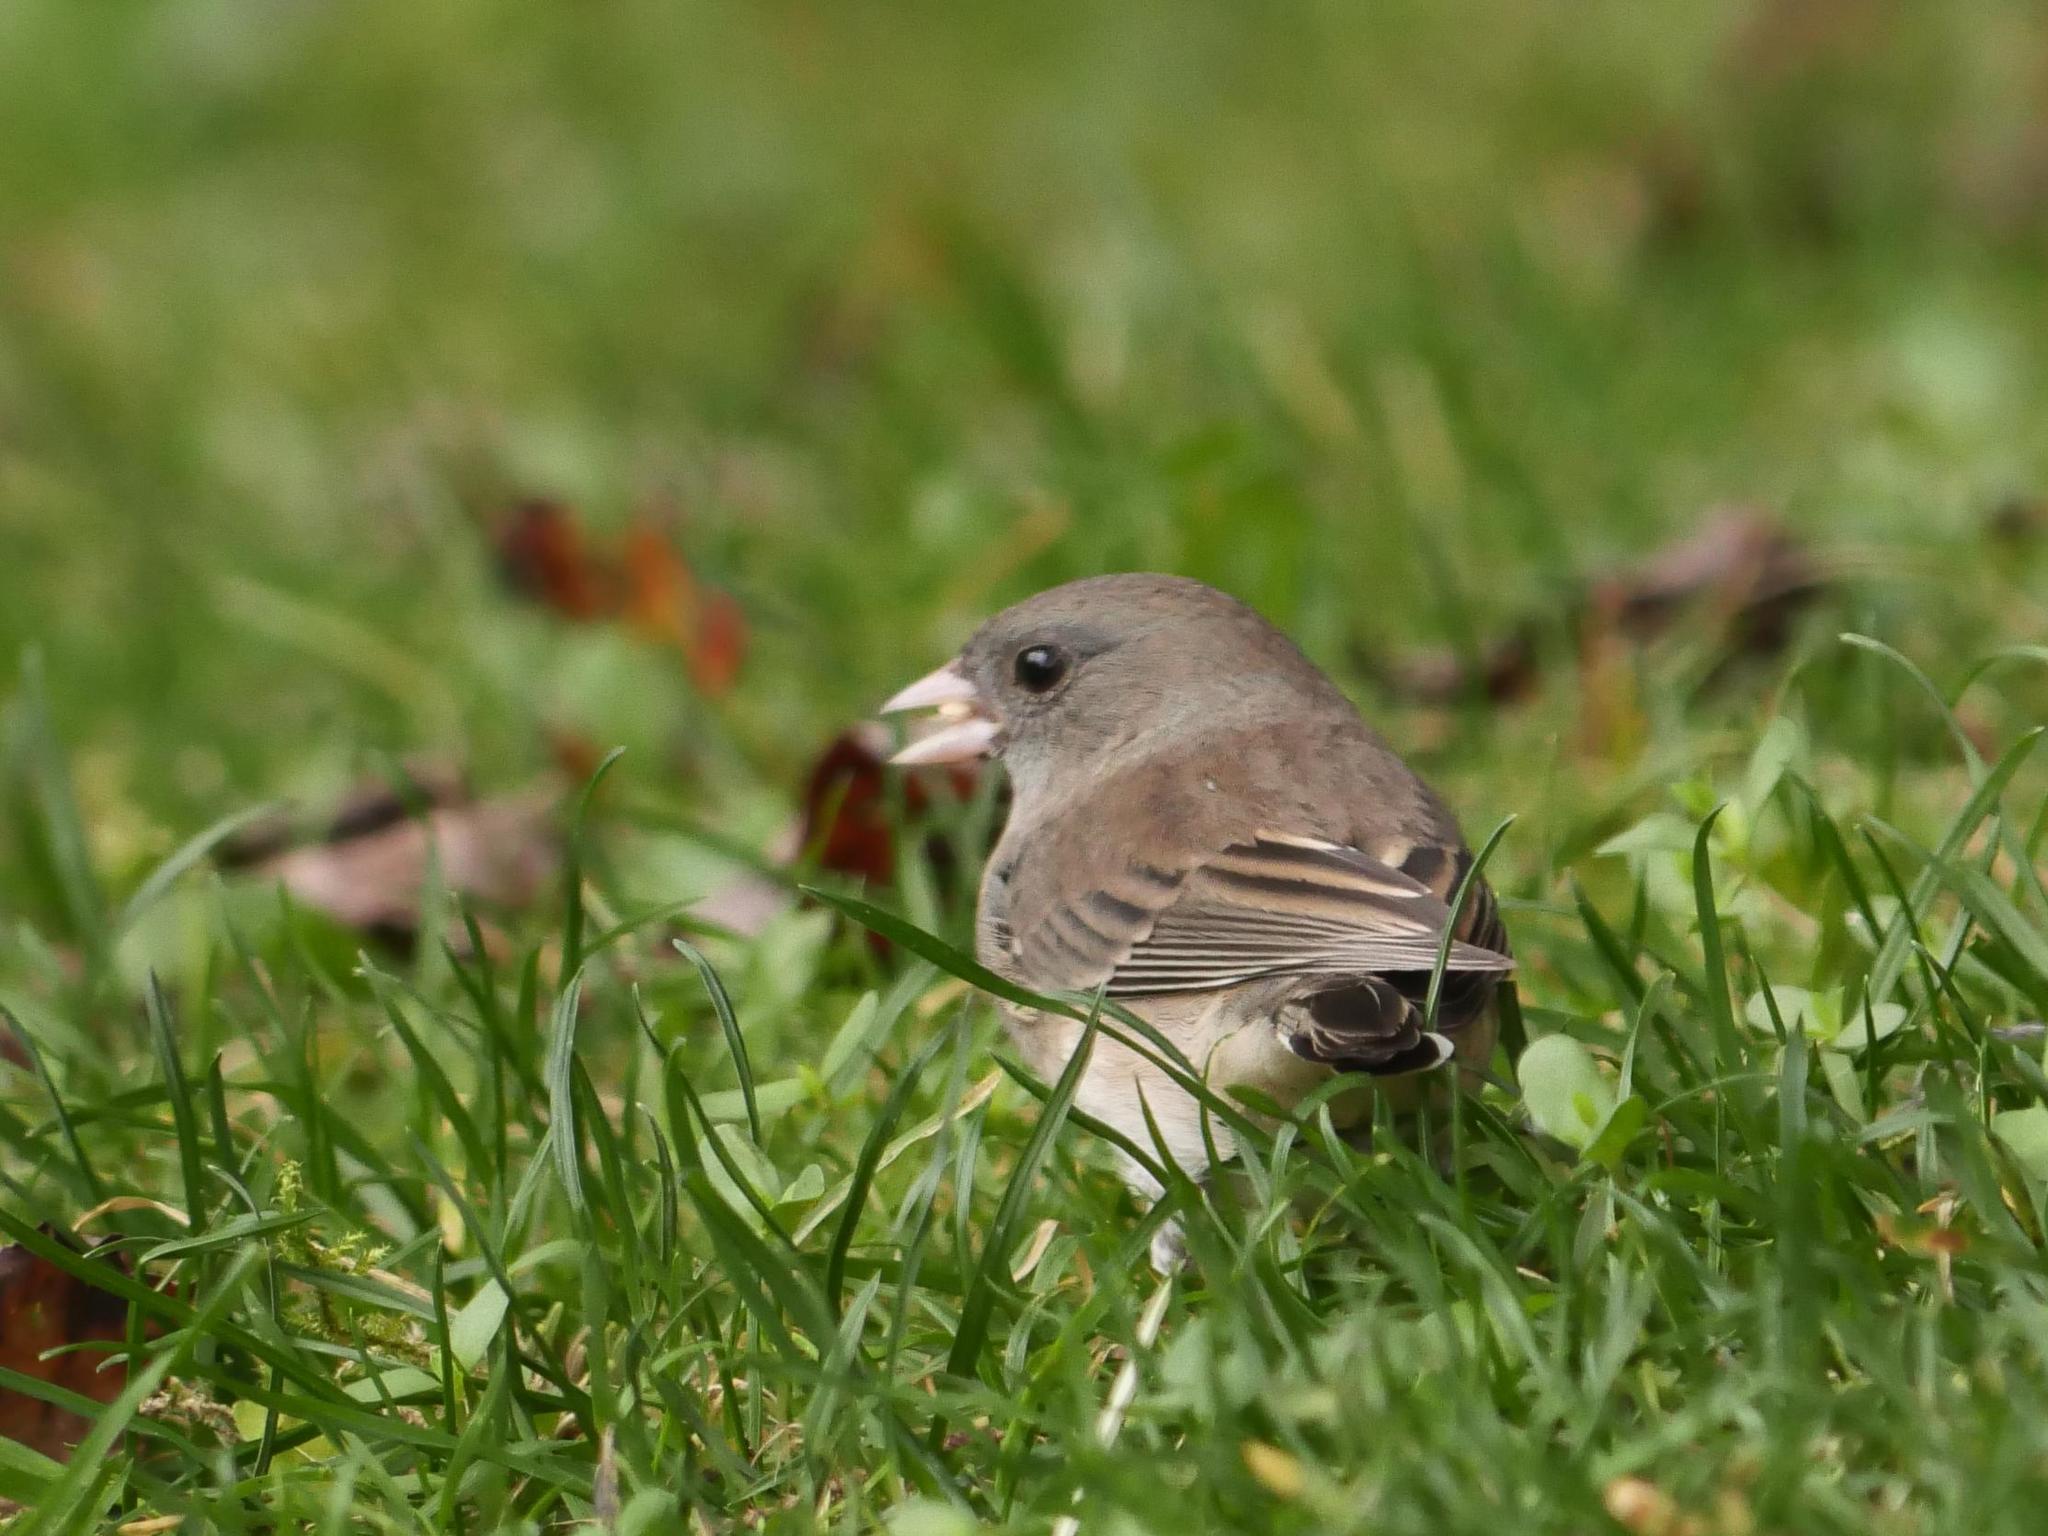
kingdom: Animalia
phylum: Chordata
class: Aves
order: Passeriformes
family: Passerellidae
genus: Junco
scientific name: Junco hyemalis
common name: Dark-eyed junco
